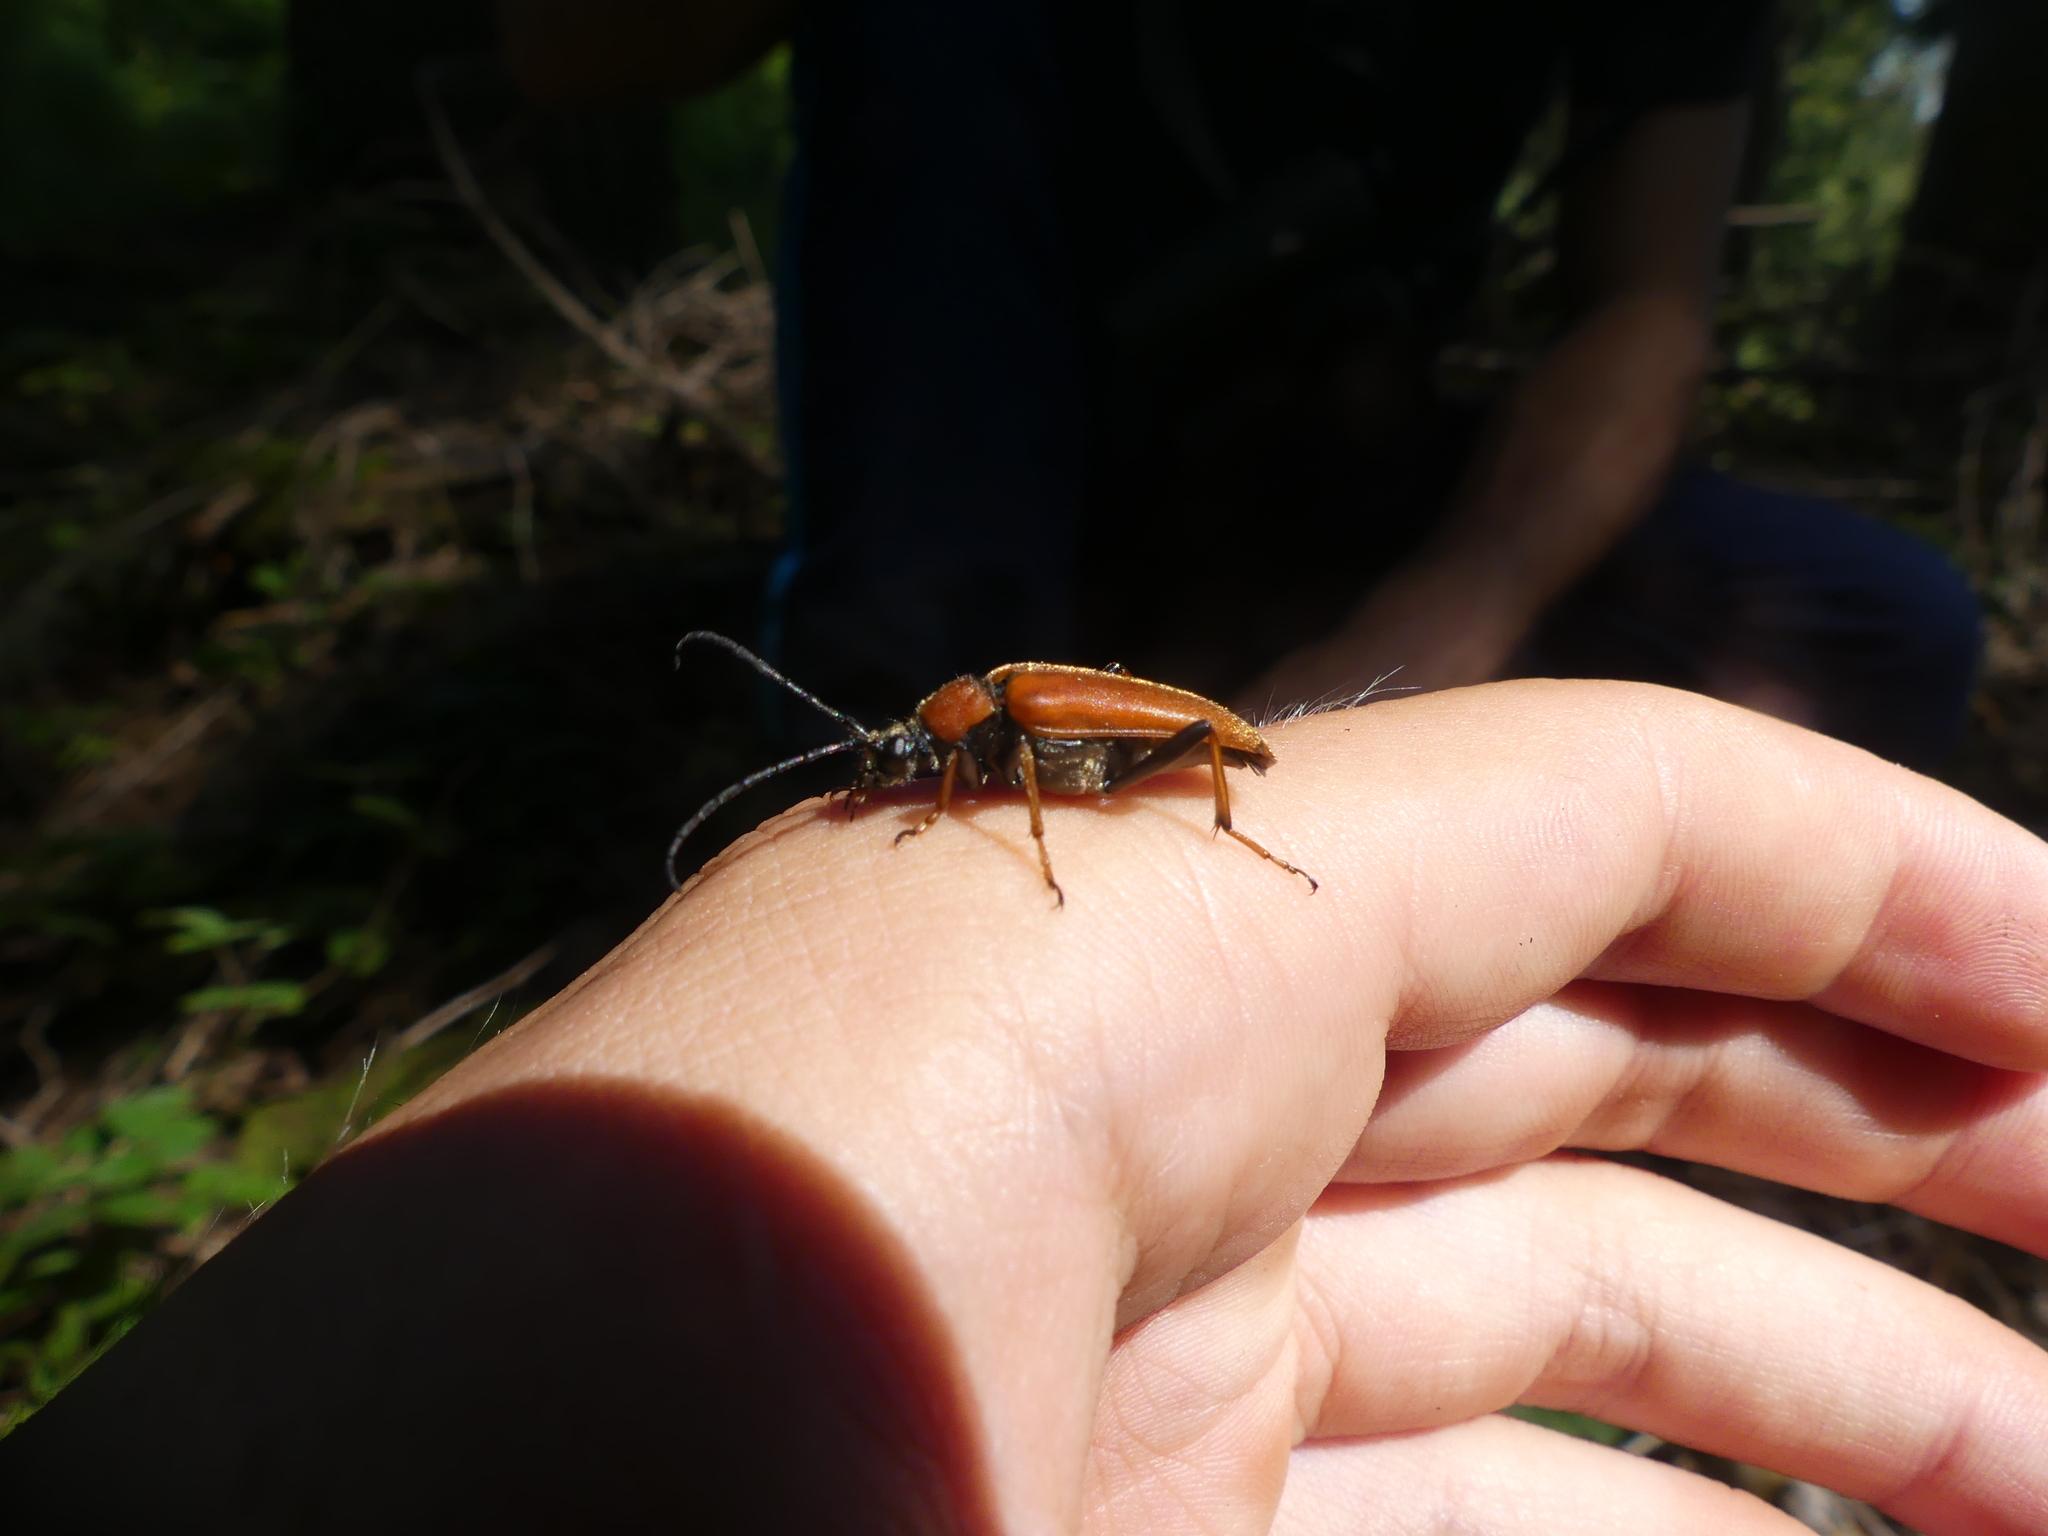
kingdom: Animalia
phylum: Arthropoda
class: Insecta
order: Coleoptera
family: Cerambycidae
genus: Stictoleptura
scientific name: Stictoleptura rubra
